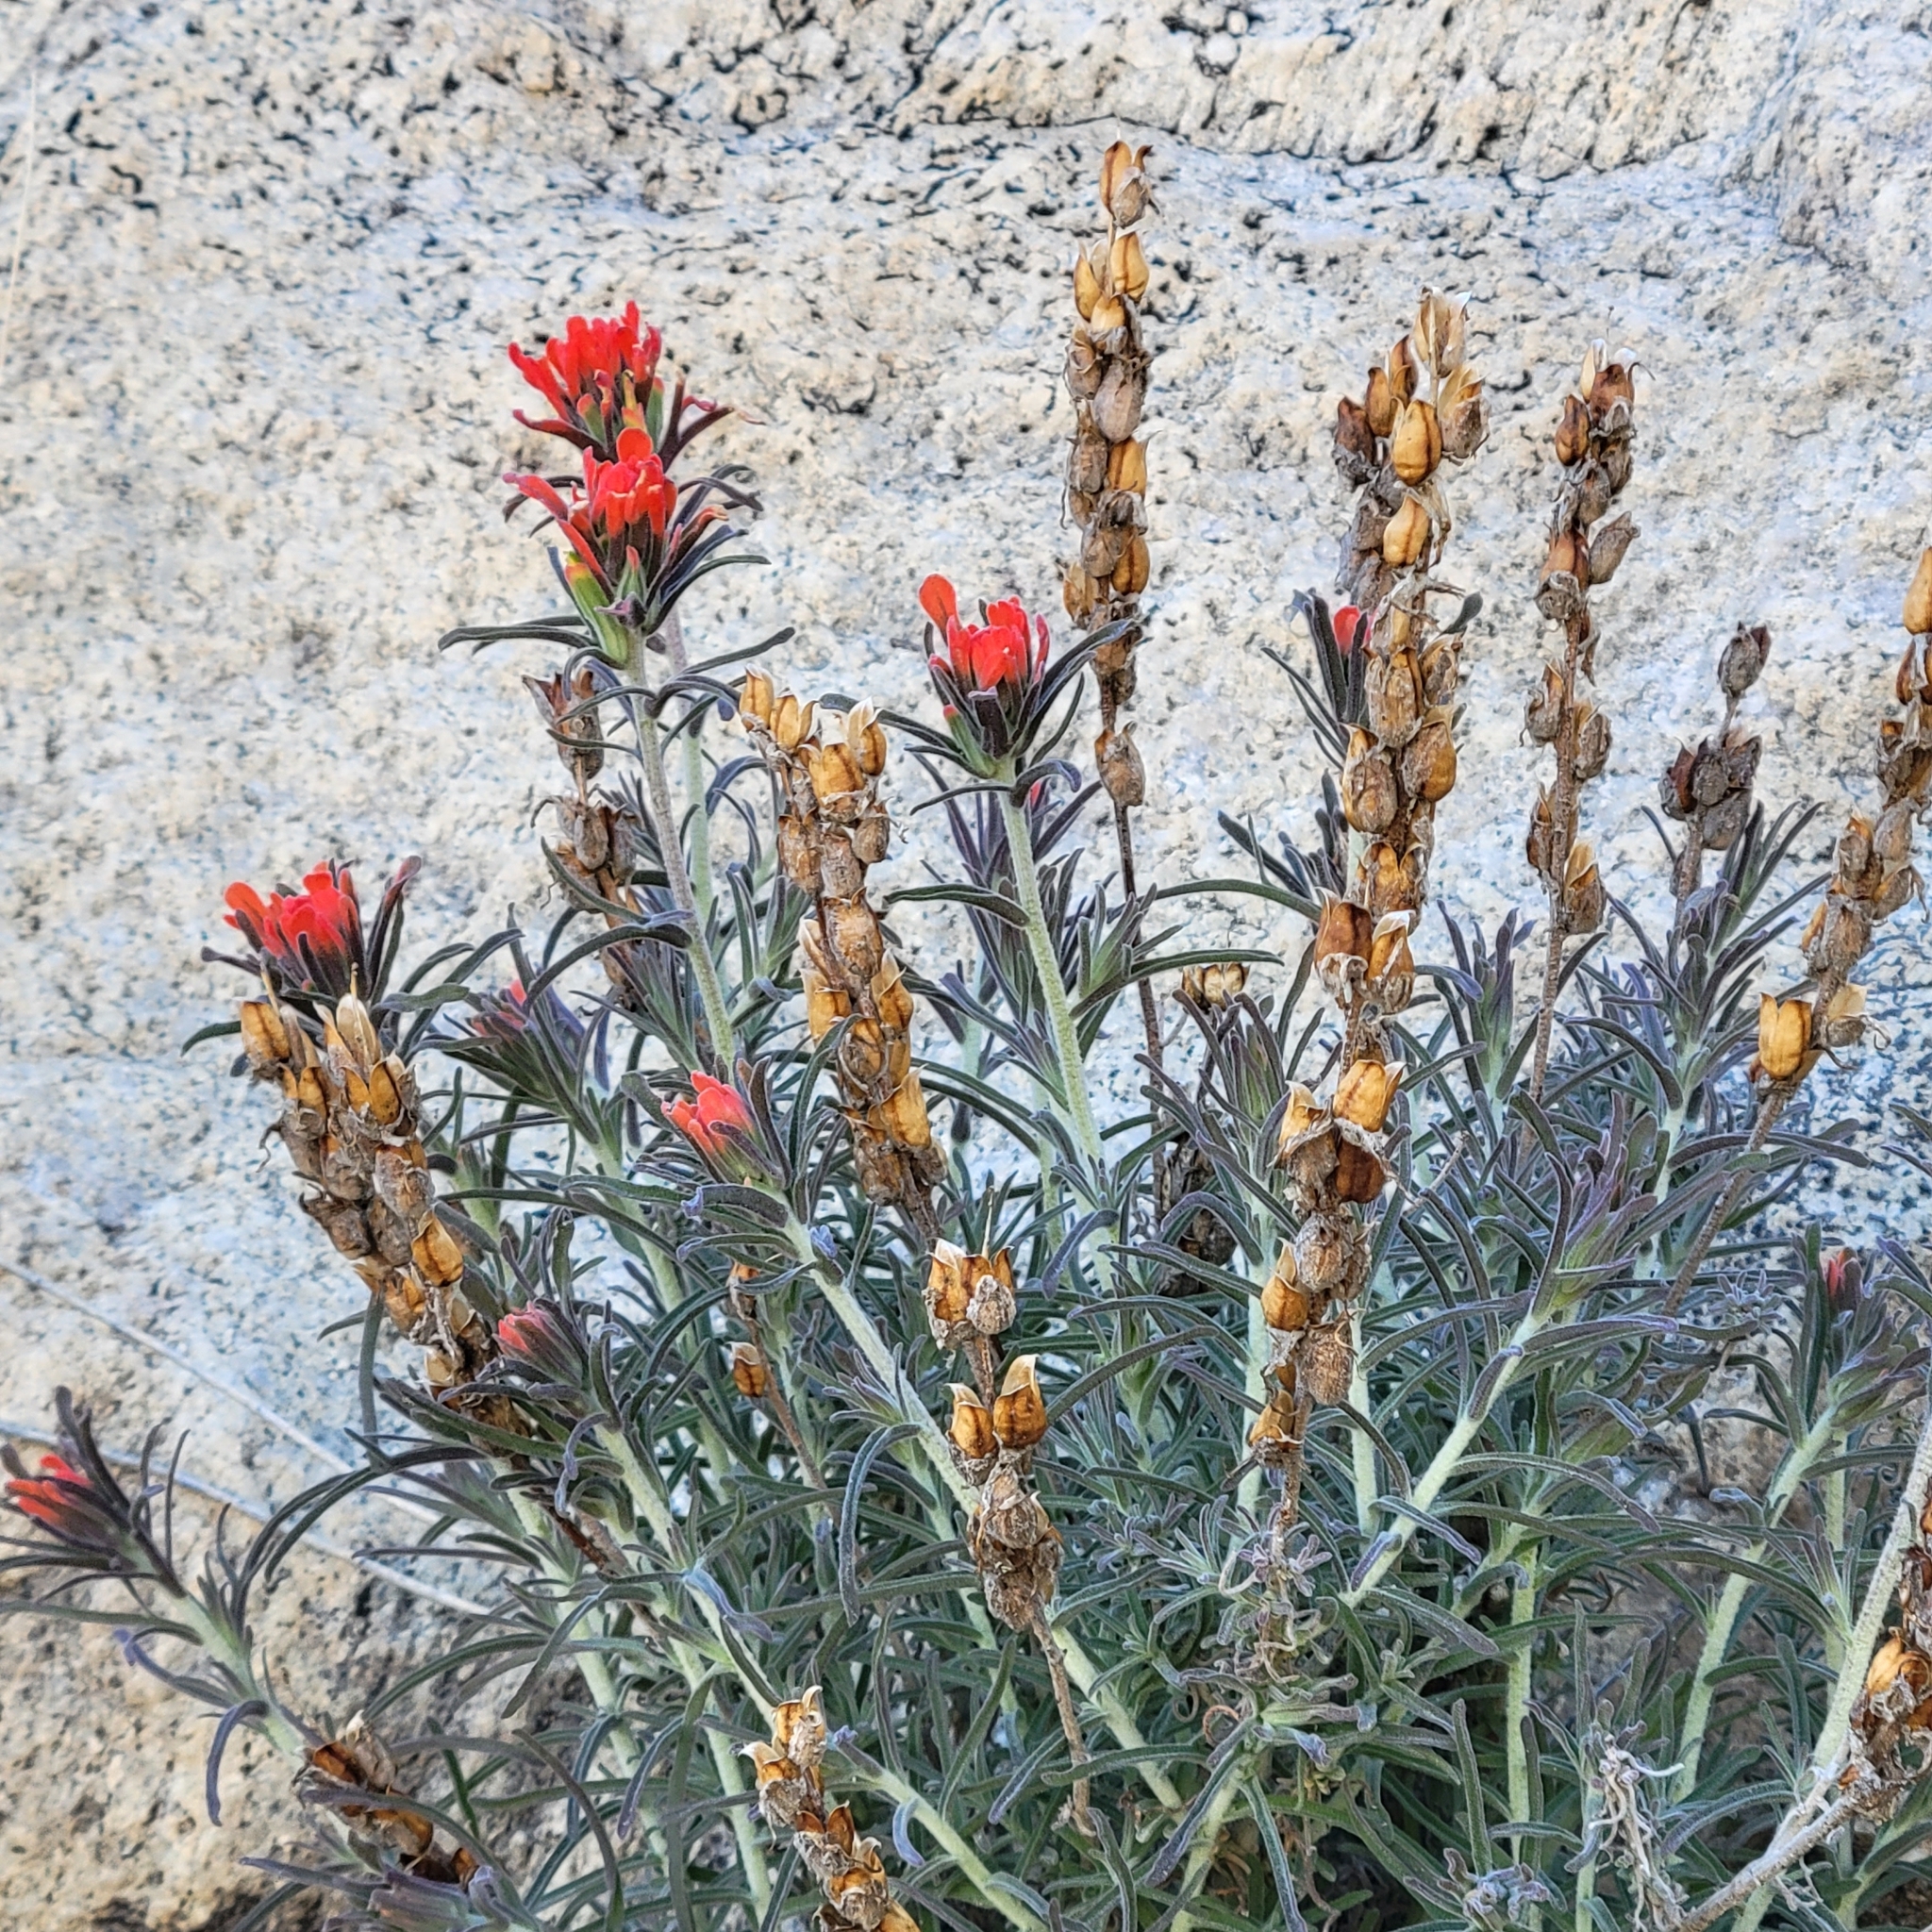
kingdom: Plantae
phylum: Tracheophyta
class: Magnoliopsida
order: Lamiales
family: Orobanchaceae
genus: Castilleja
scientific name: Castilleja foliolosa
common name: Woolly indian paintbrush
